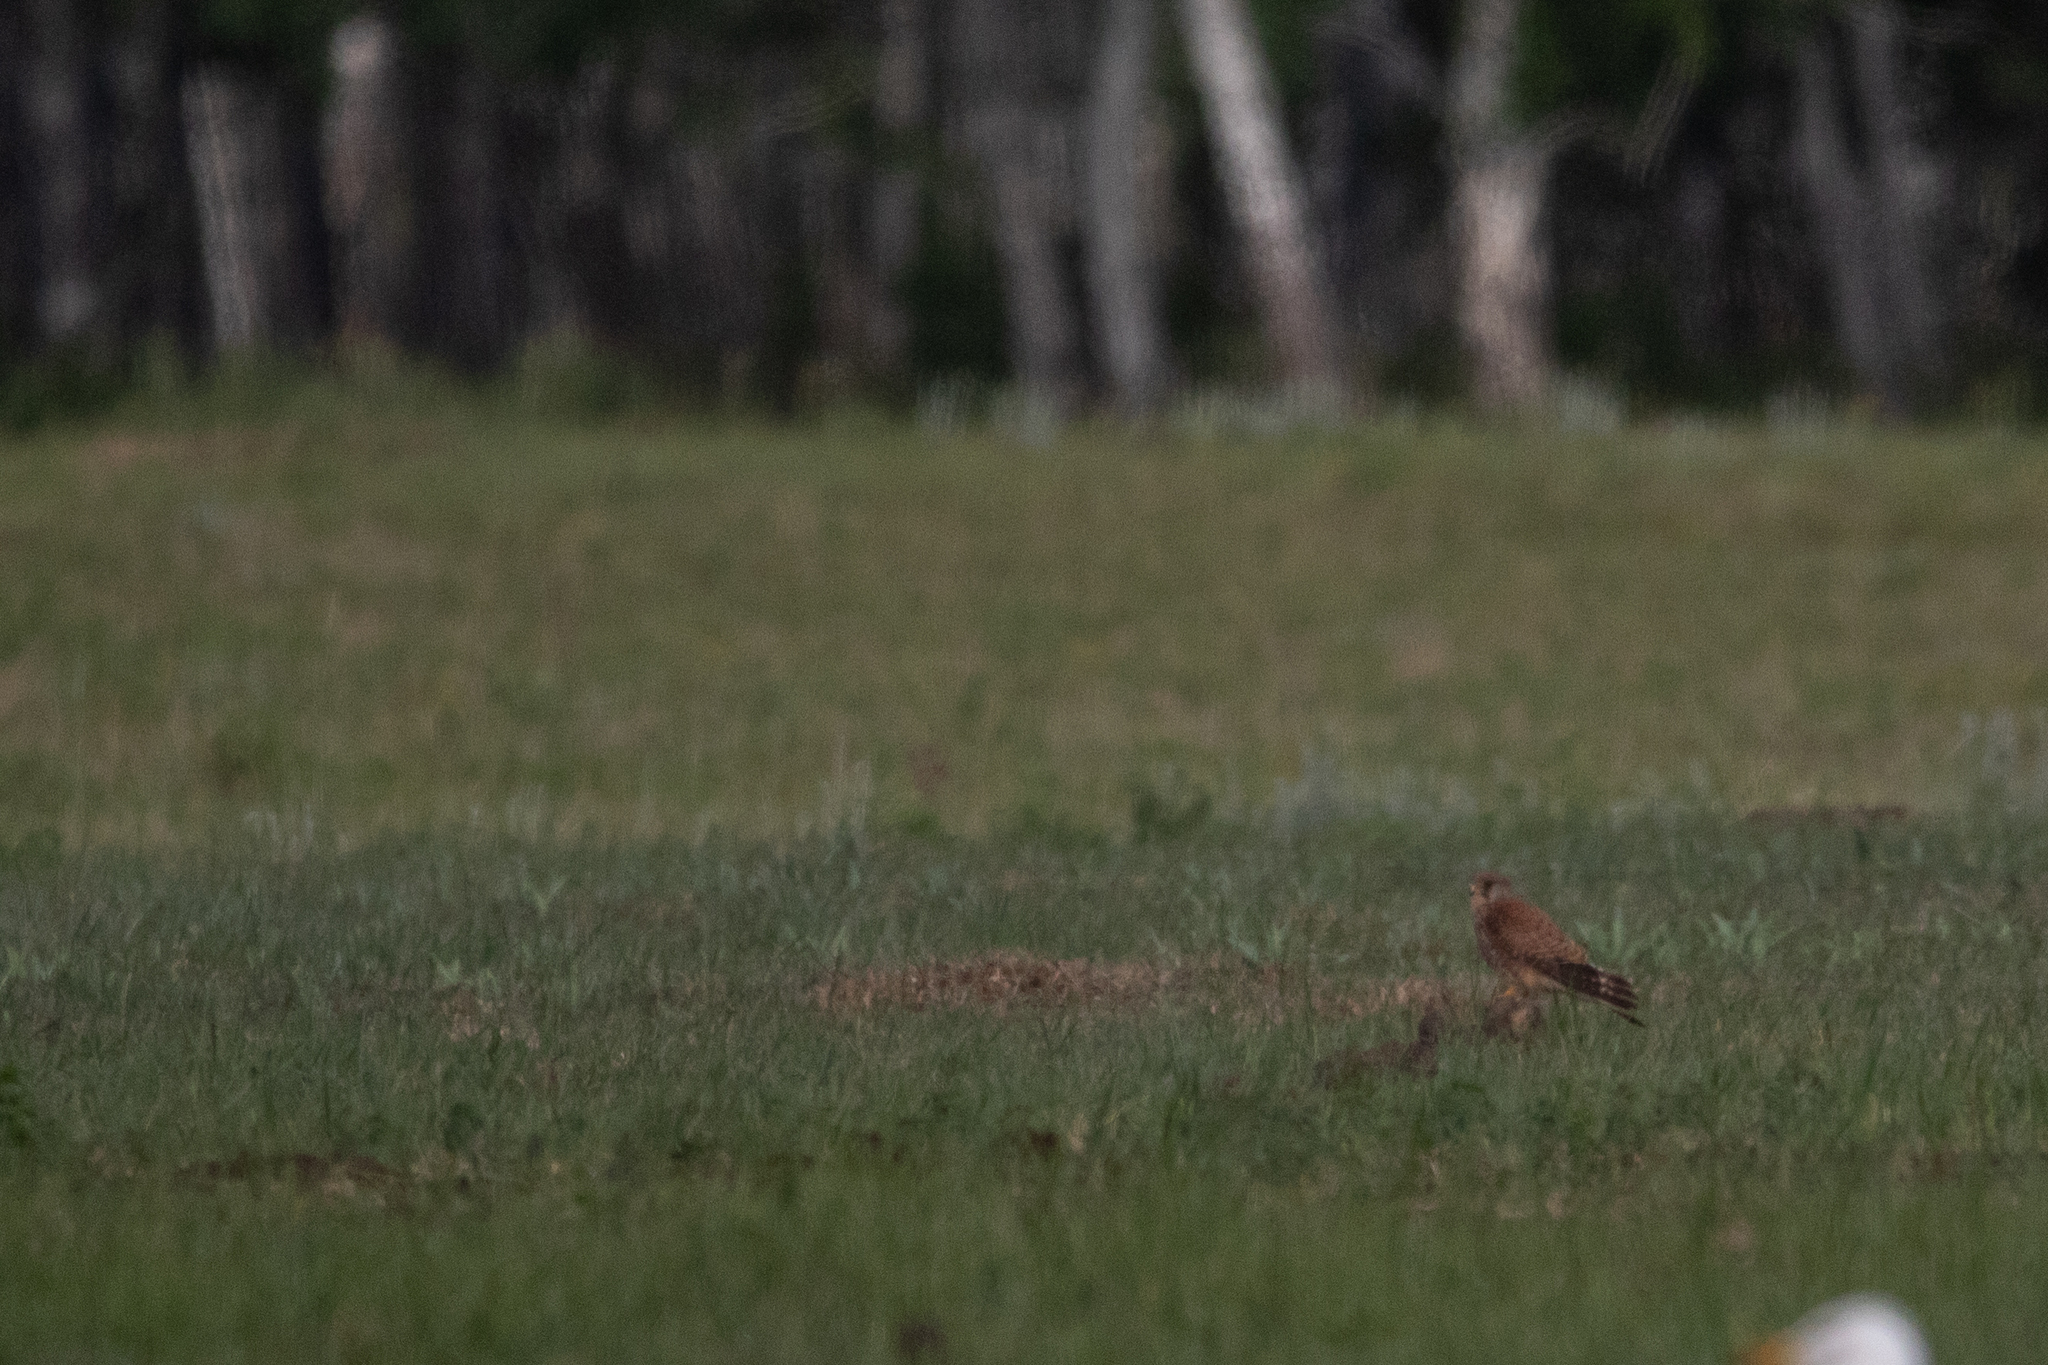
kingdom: Animalia
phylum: Chordata
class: Aves
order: Falconiformes
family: Falconidae
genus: Falco
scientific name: Falco tinnunculus
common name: Common kestrel
